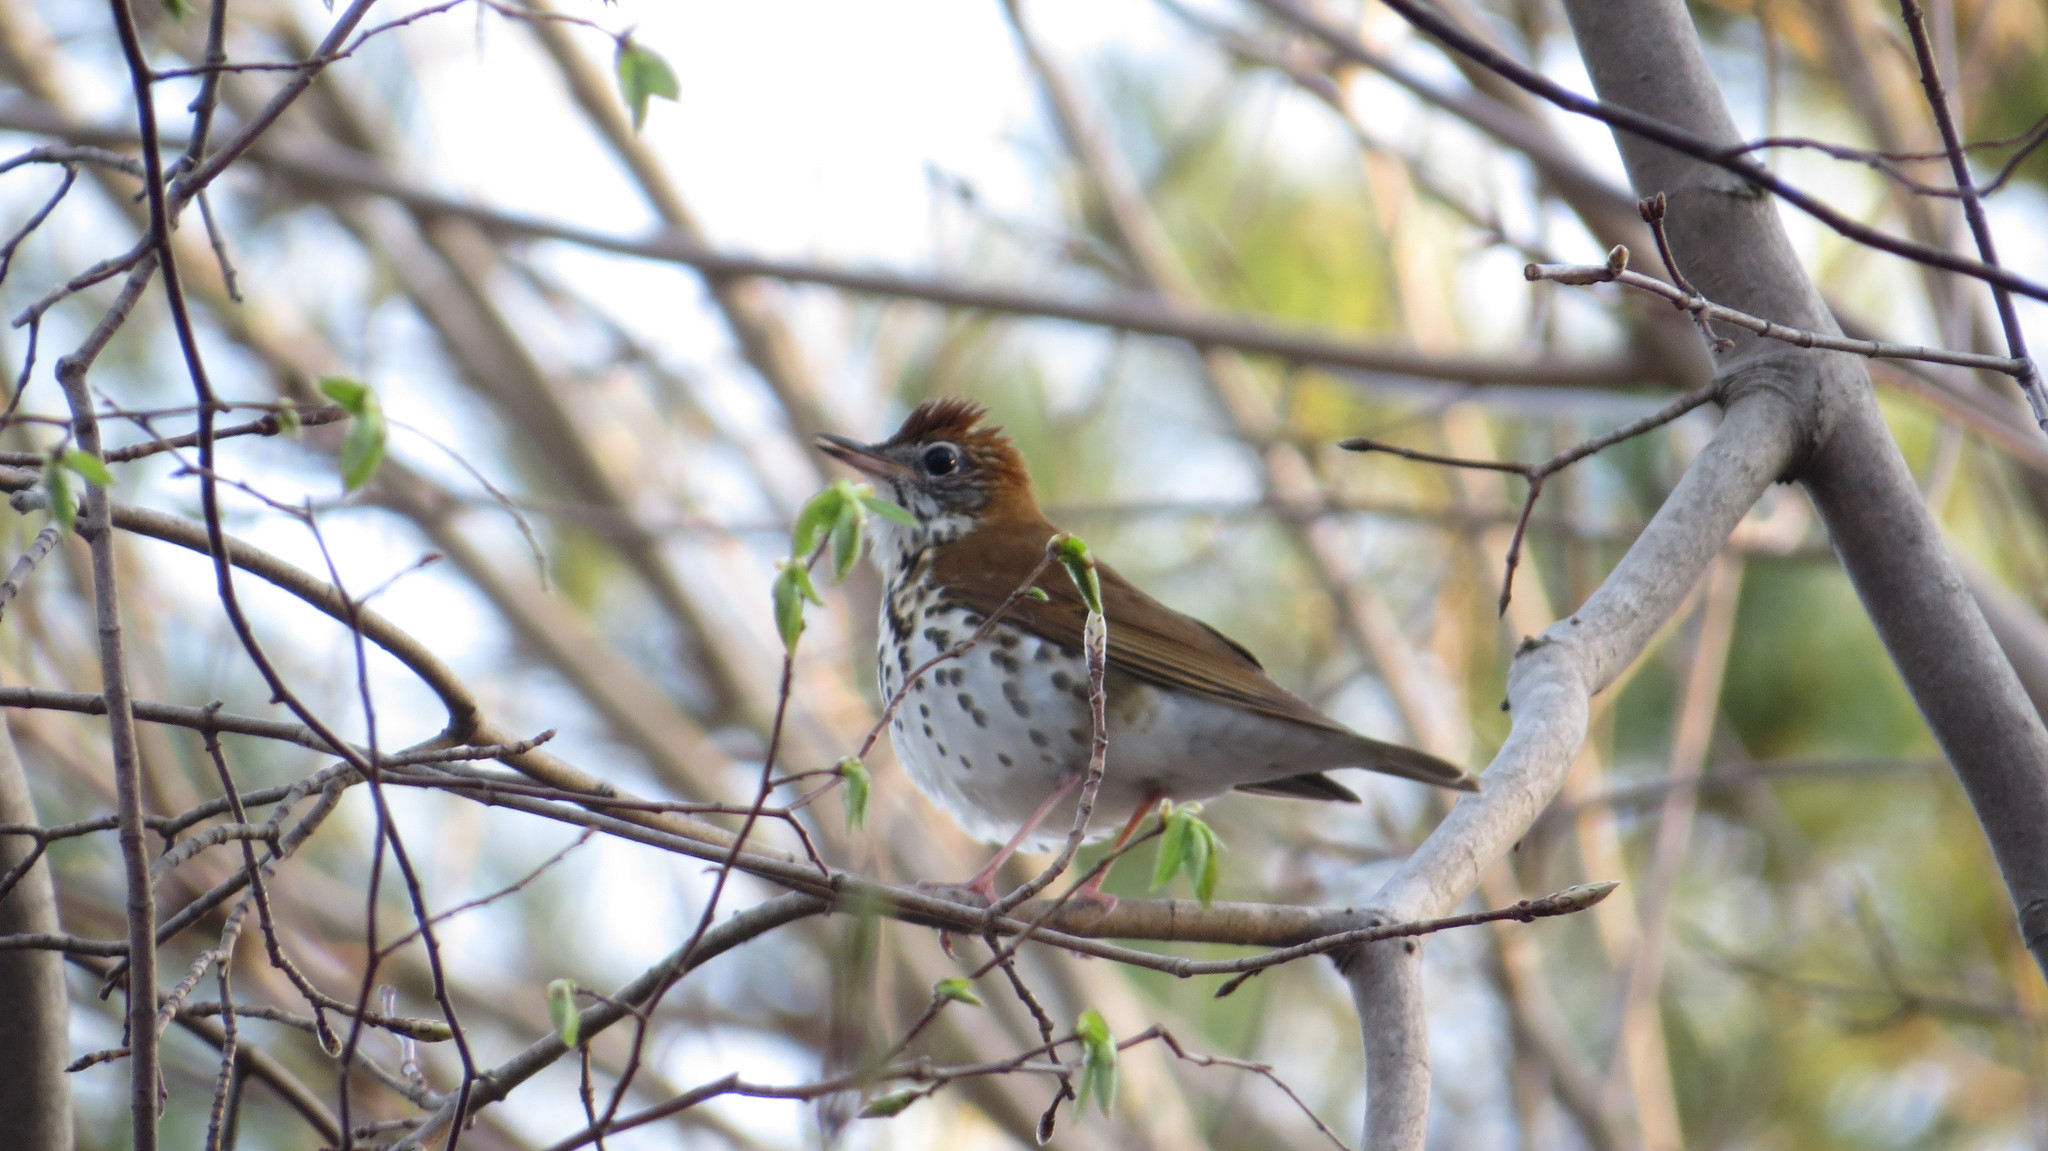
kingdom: Animalia
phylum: Chordata
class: Aves
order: Passeriformes
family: Turdidae
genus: Hylocichla
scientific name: Hylocichla mustelina
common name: Wood thrush
